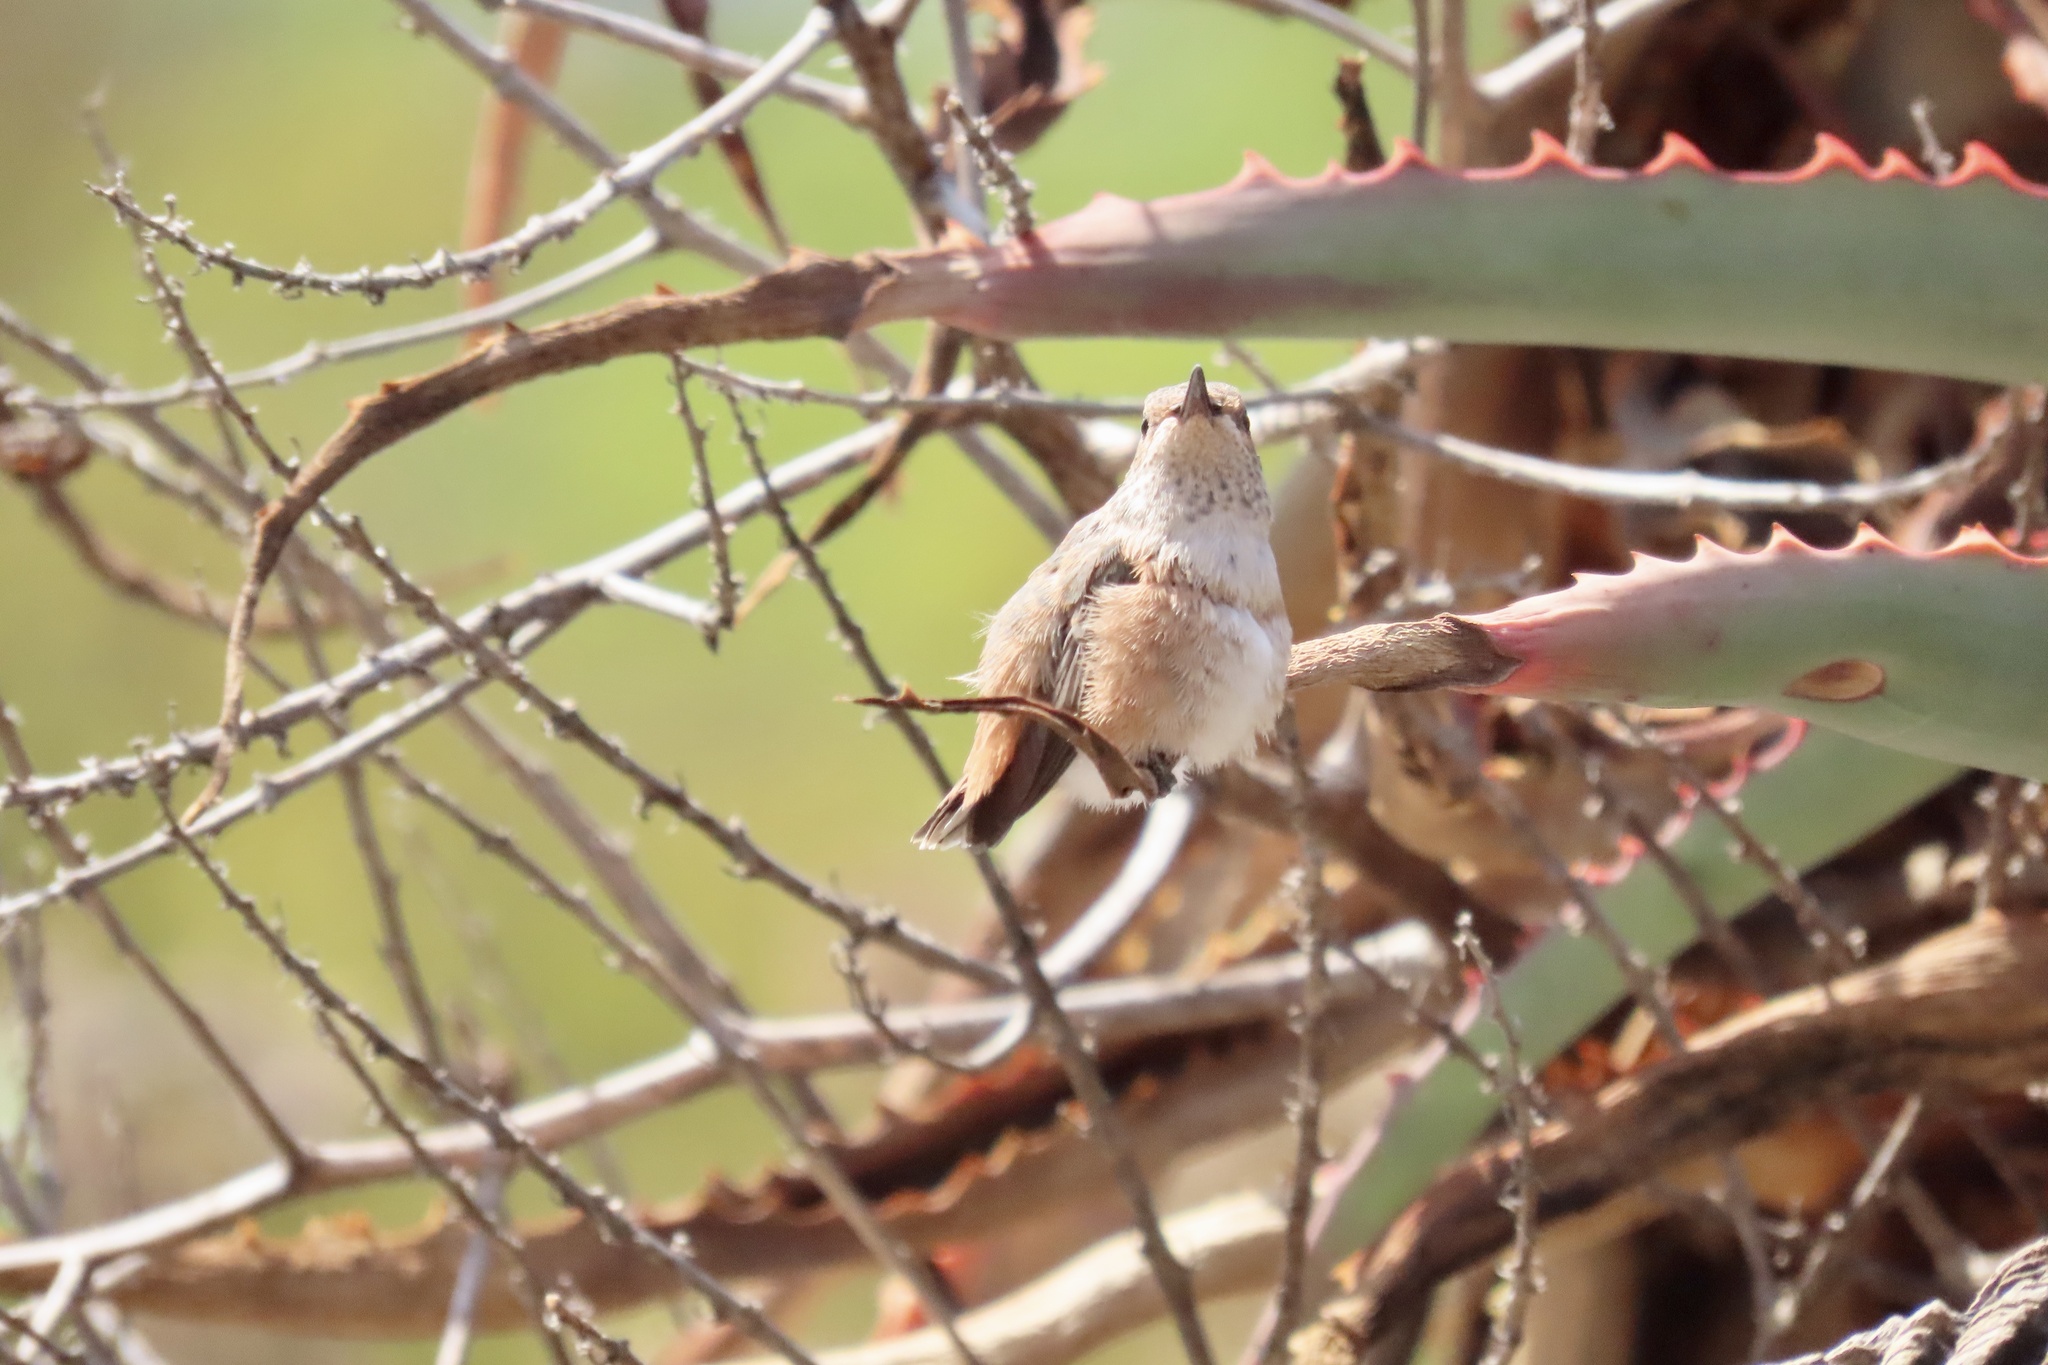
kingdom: Animalia
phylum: Chordata
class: Aves
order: Apodiformes
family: Trochilidae
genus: Selasphorus
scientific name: Selasphorus sasin
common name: Allen's hummingbird
